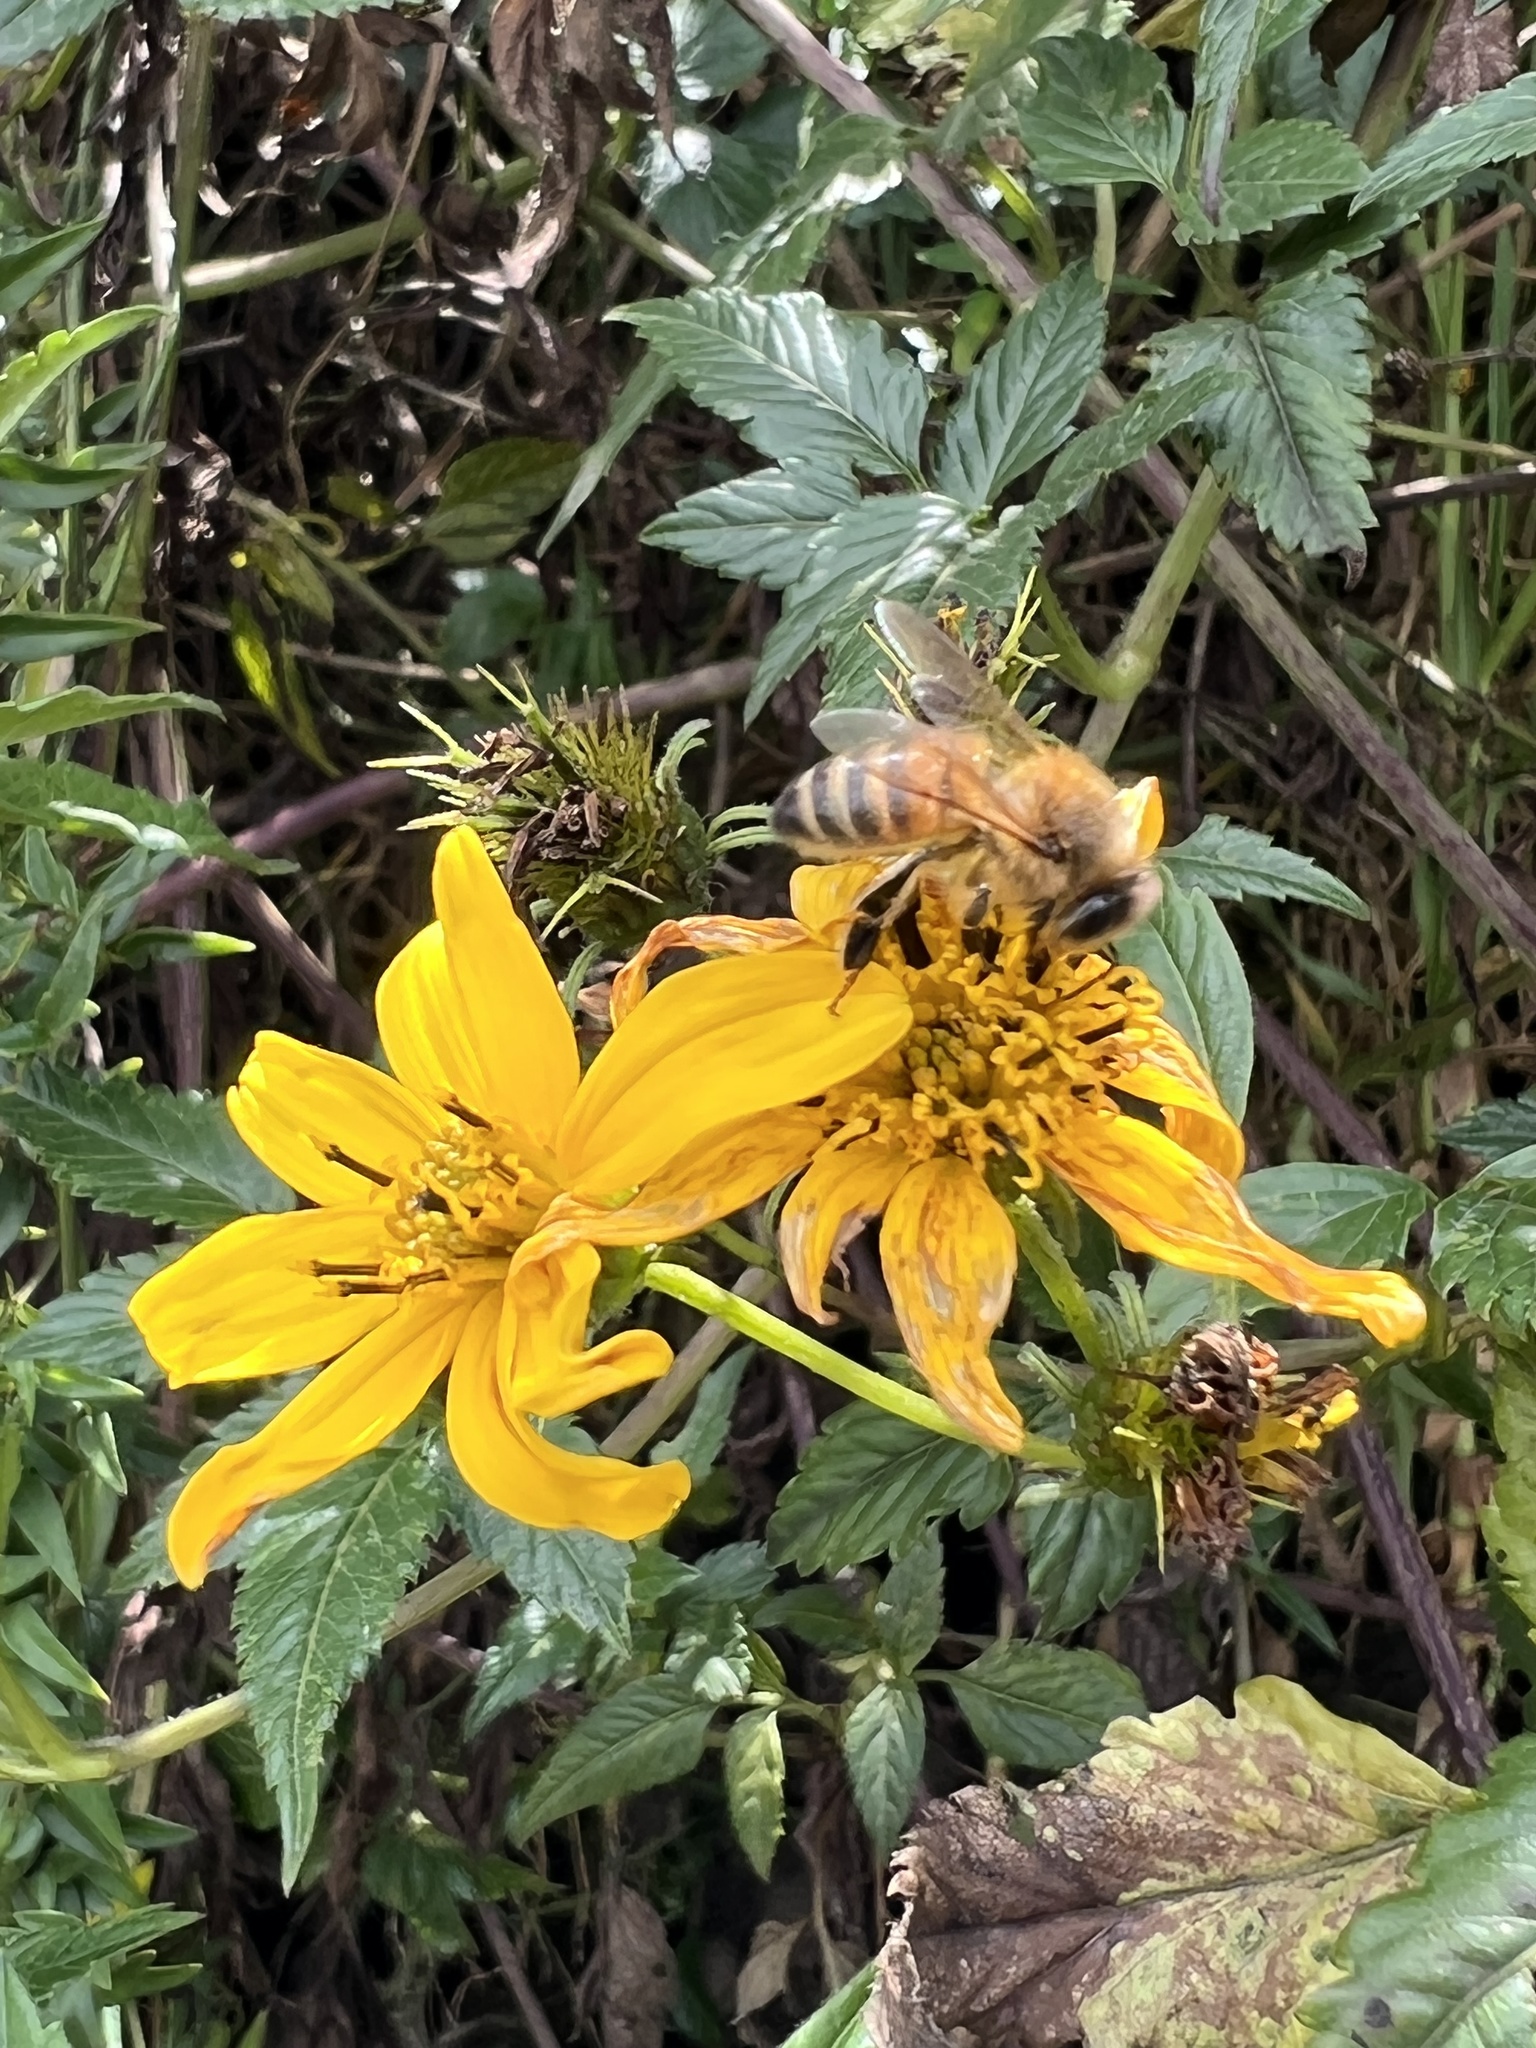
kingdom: Animalia
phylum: Arthropoda
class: Insecta
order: Hymenoptera
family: Apidae
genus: Apis
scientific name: Apis mellifera
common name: Honey bee
